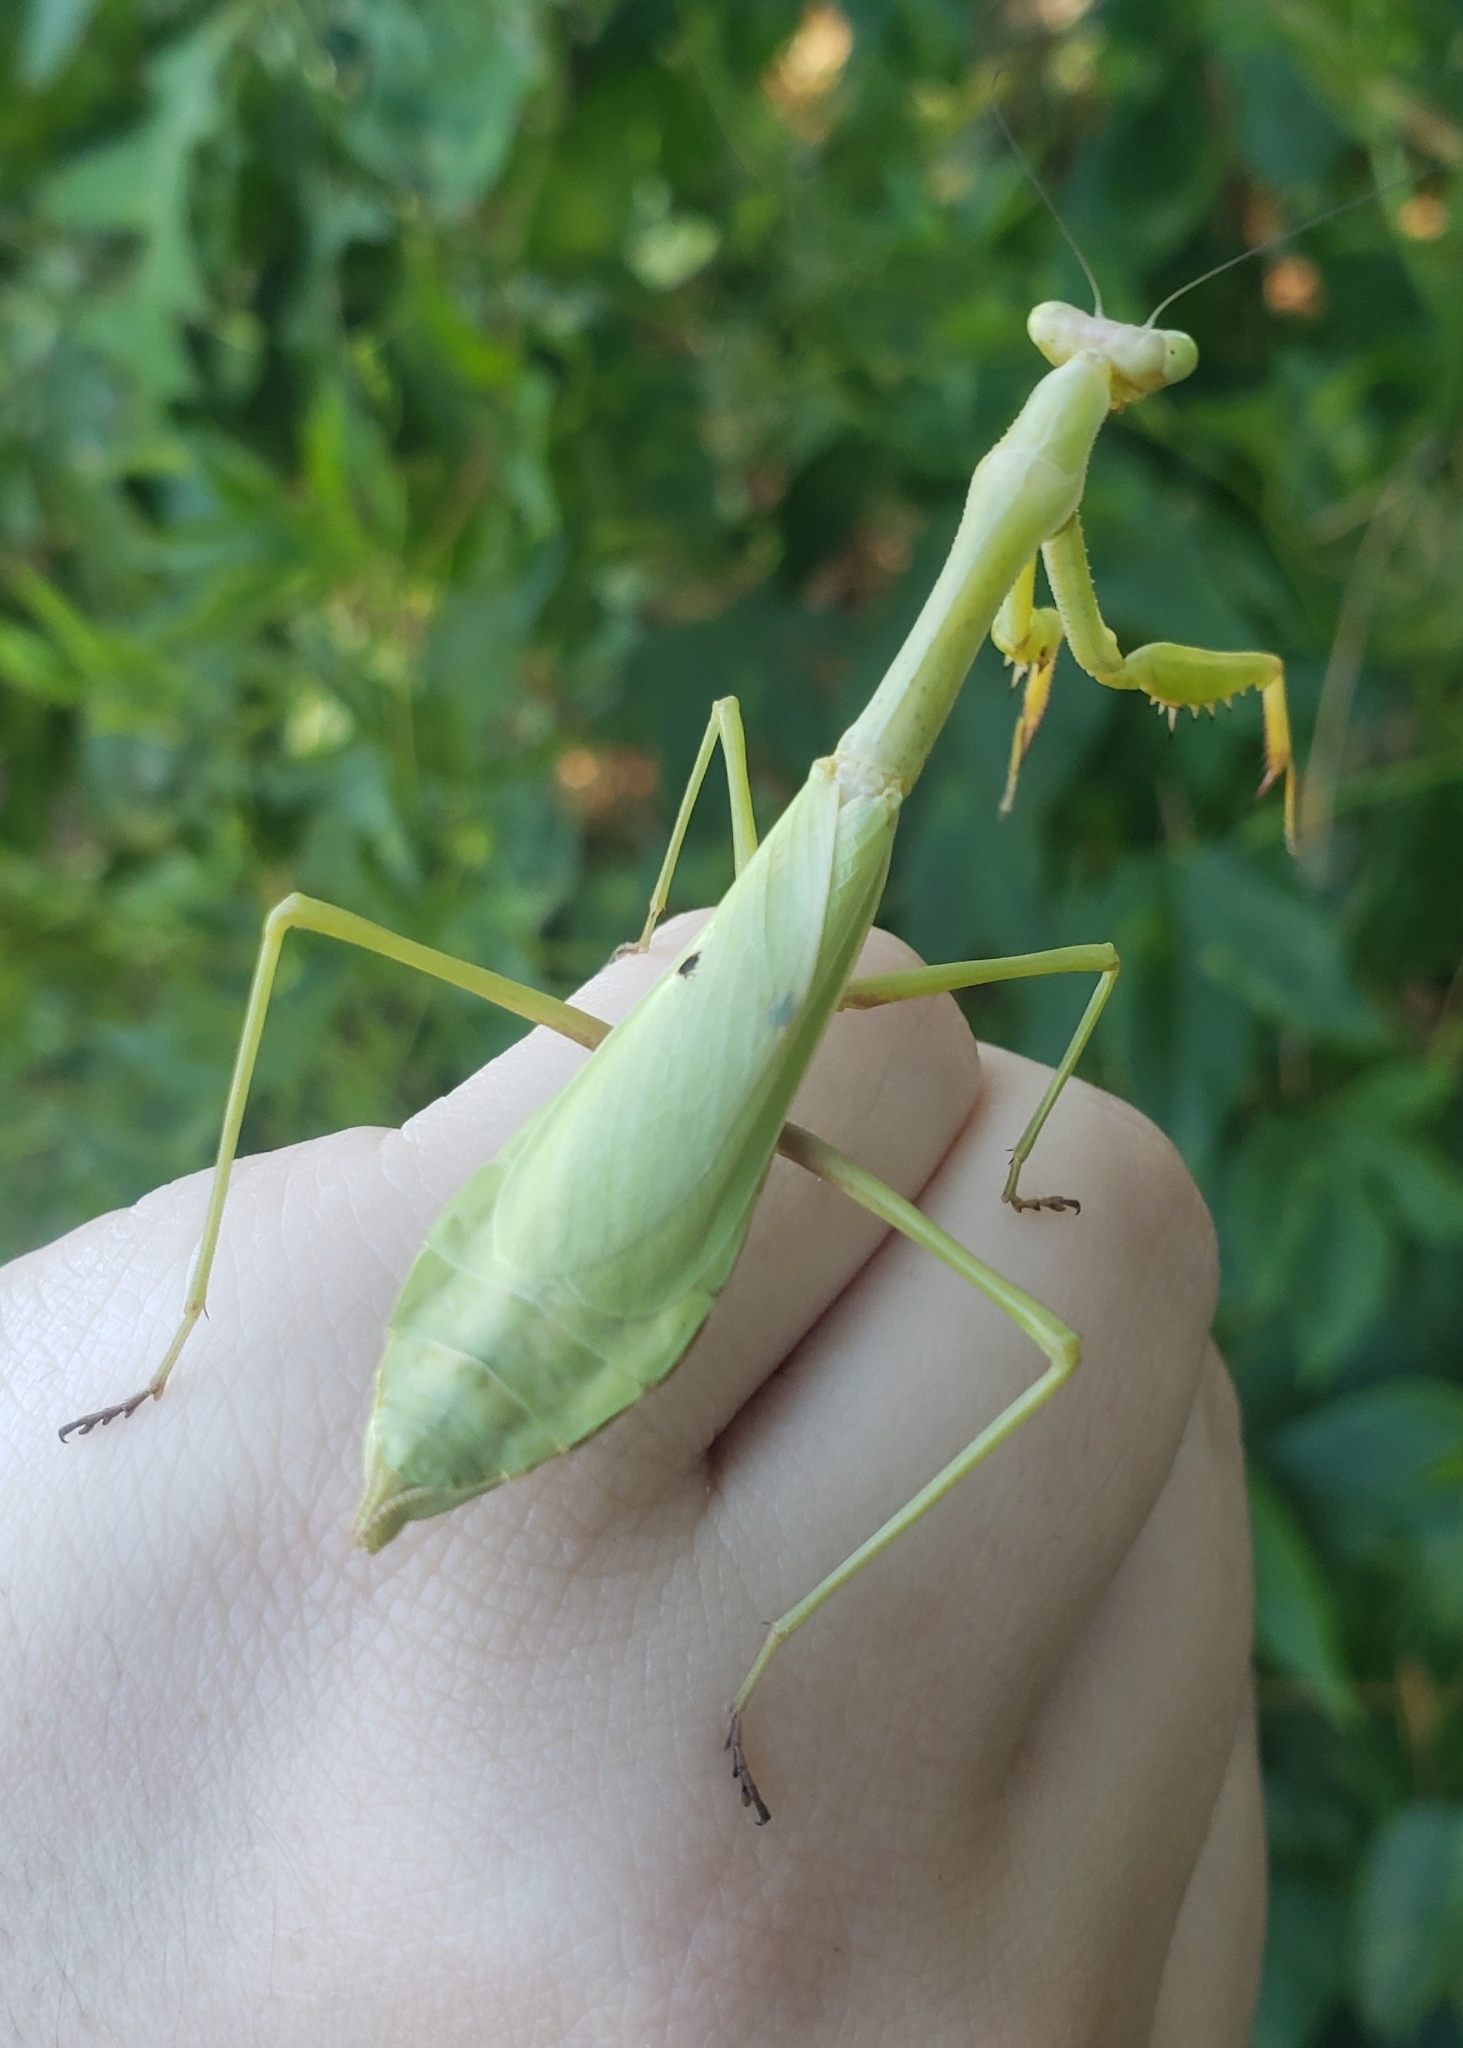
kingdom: Animalia
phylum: Arthropoda
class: Insecta
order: Mantodea
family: Mantidae
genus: Stagmomantis
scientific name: Stagmomantis carolina
